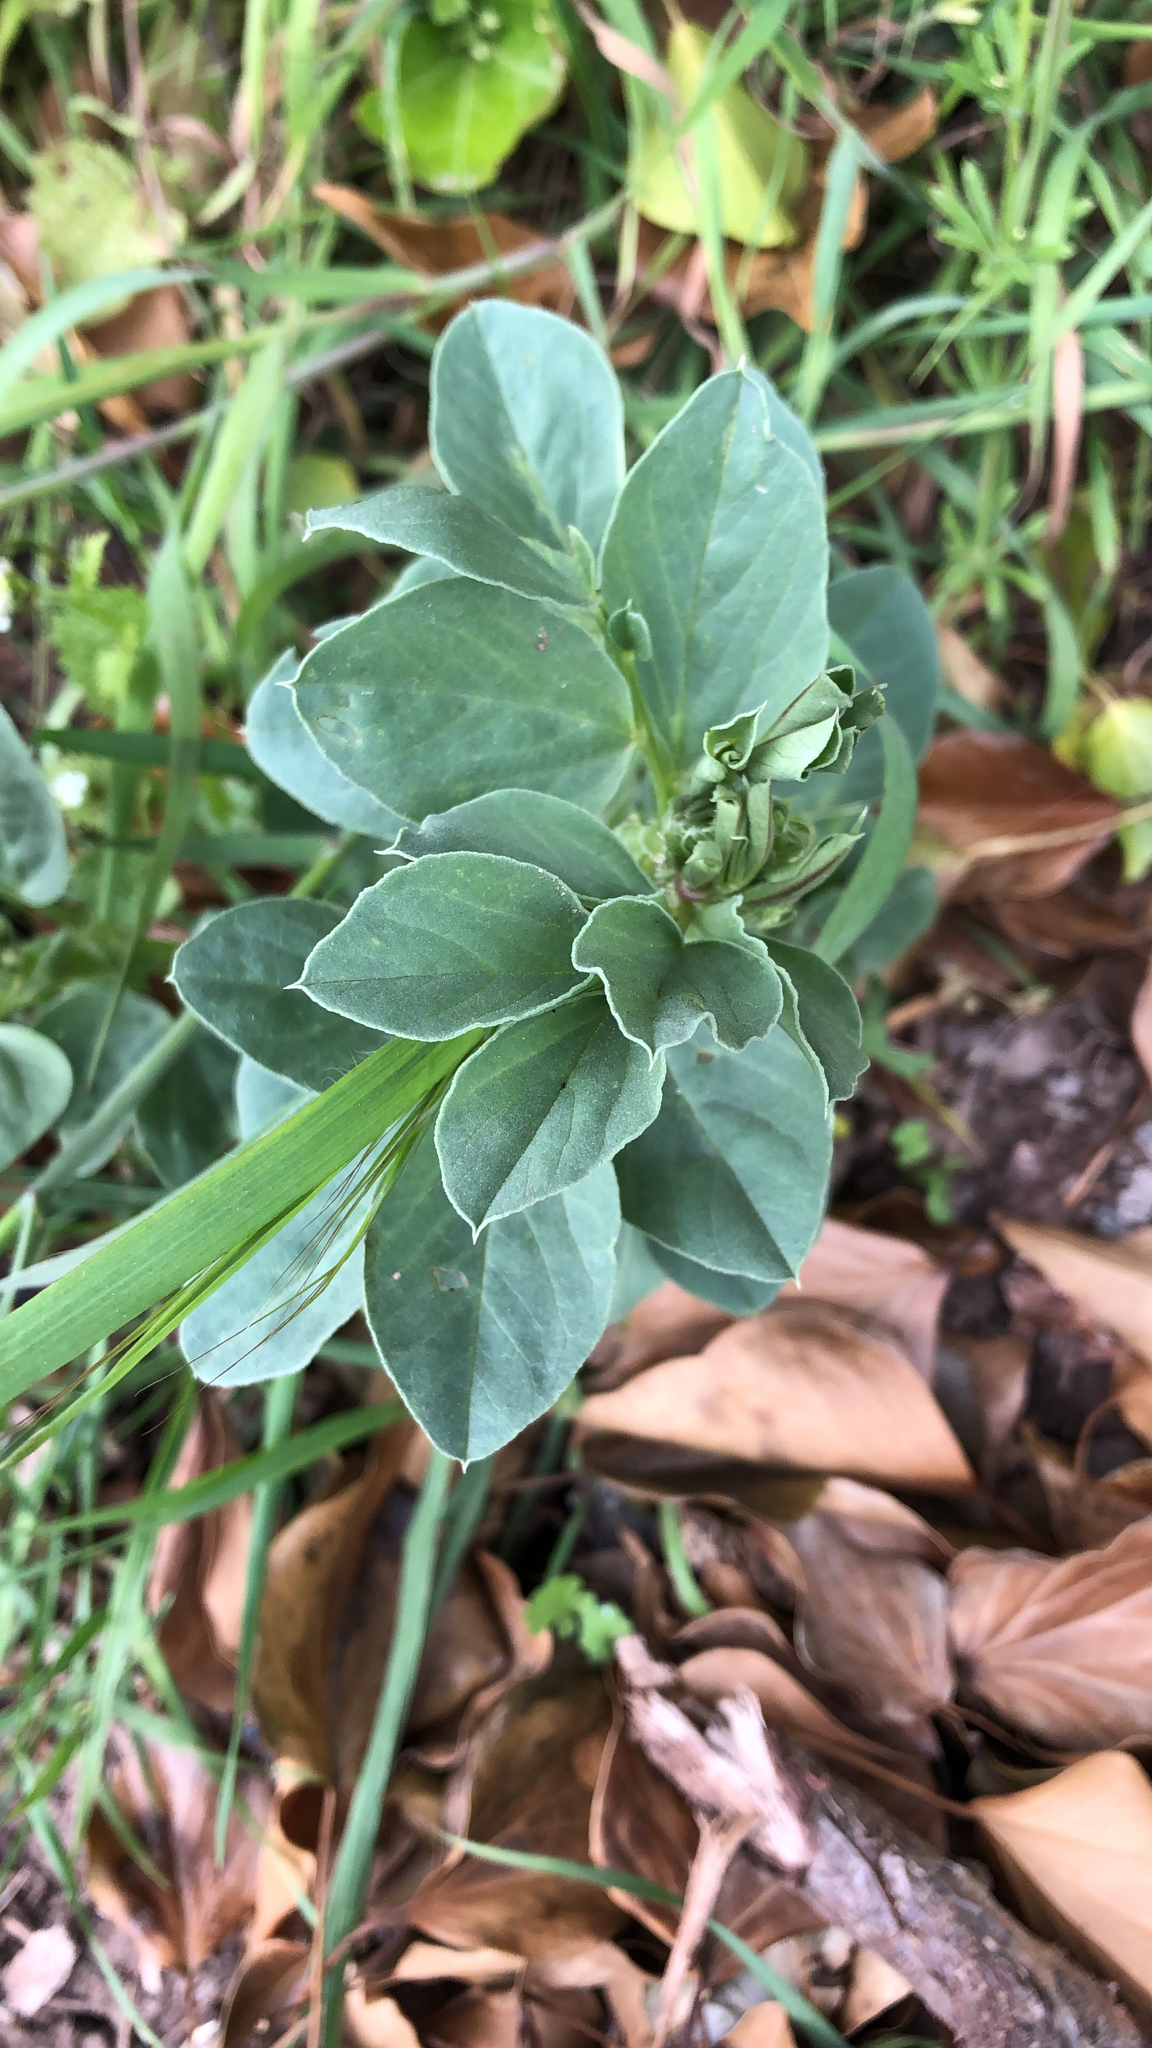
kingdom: Plantae
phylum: Tracheophyta
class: Magnoliopsida
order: Fabales
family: Fabaceae
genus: Vicia
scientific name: Vicia faba
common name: Broad bean
